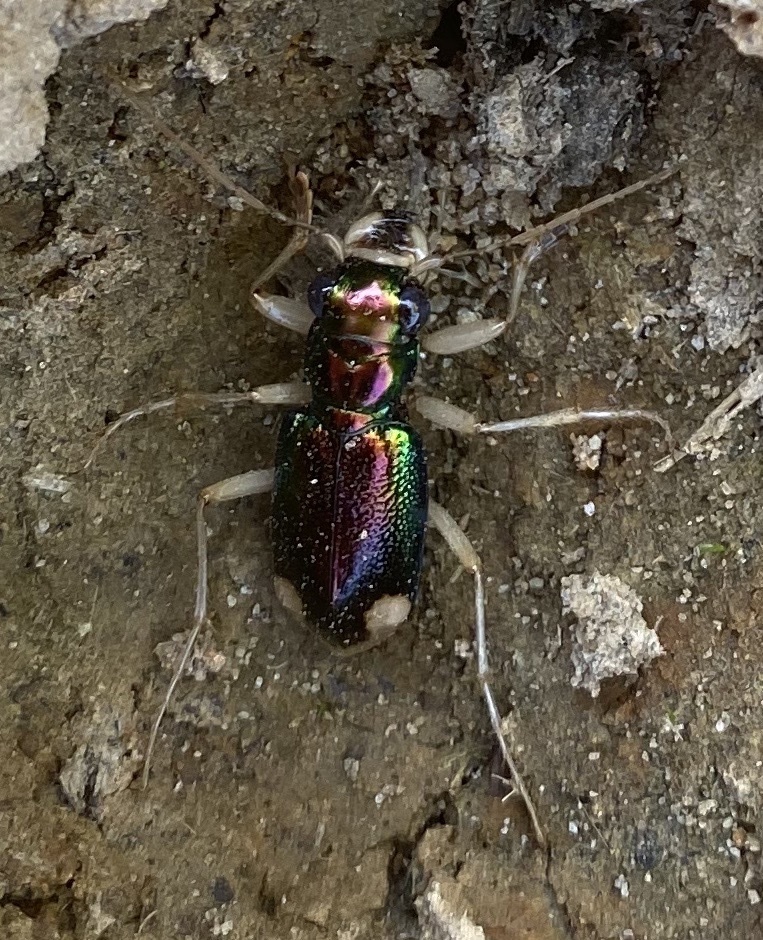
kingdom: Animalia
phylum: Arthropoda
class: Insecta
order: Coleoptera
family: Carabidae
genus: Tetracha
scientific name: Tetracha carolina
